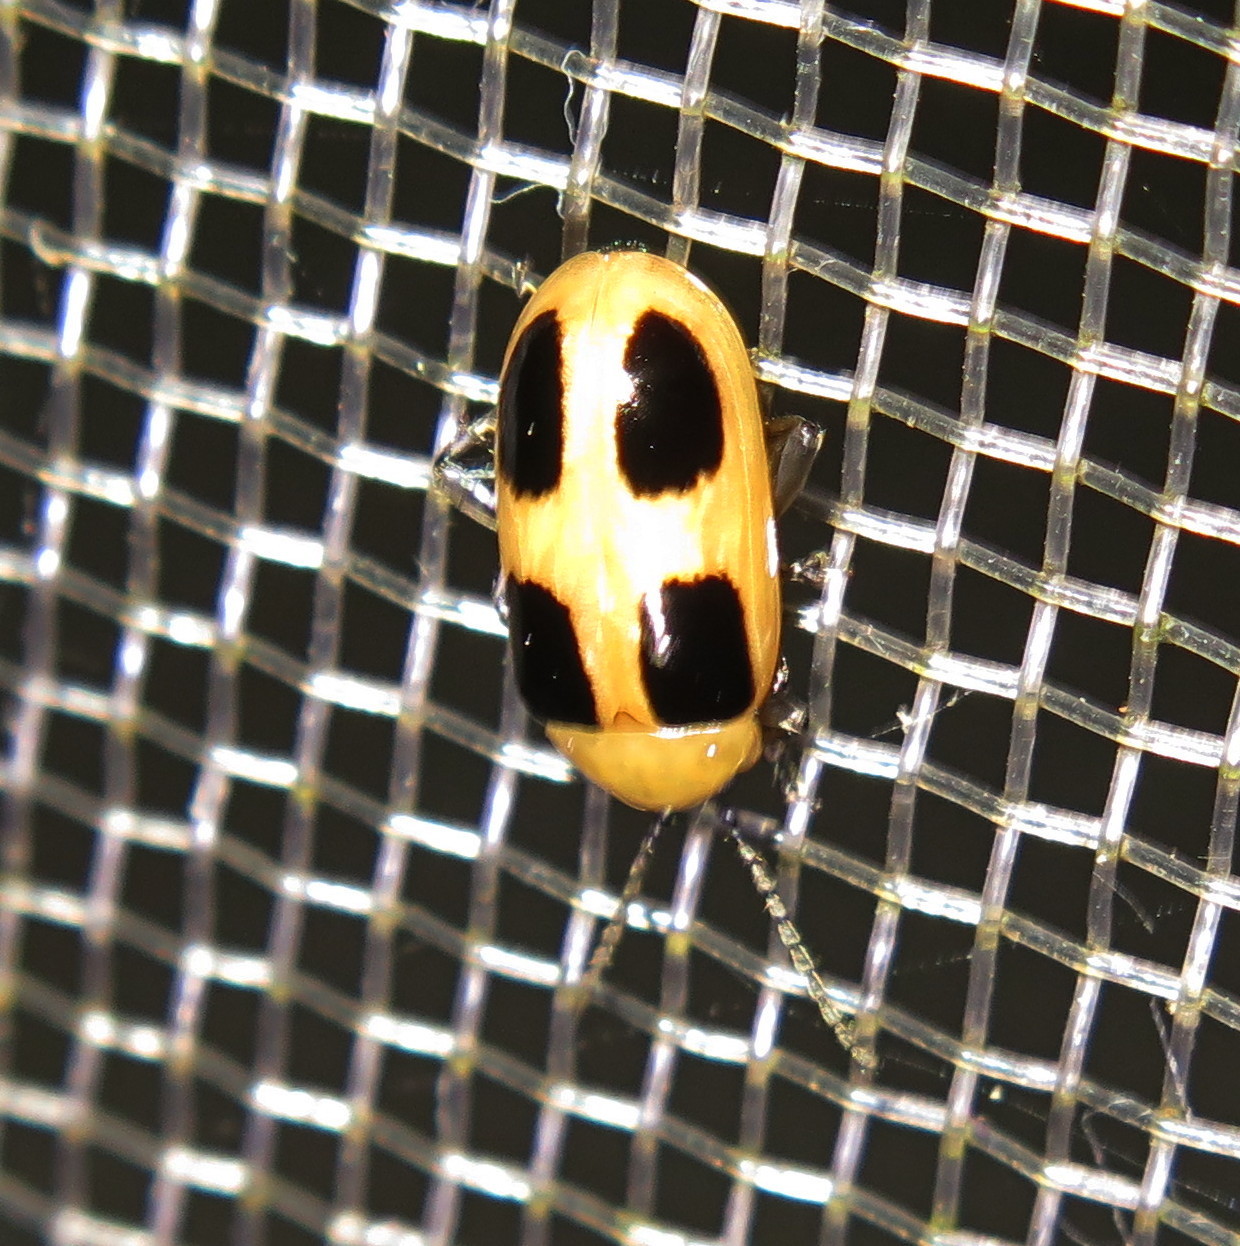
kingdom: Animalia
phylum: Arthropoda
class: Insecta
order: Coleoptera
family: Chrysomelidae
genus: Lacpatica
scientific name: Lacpatica
